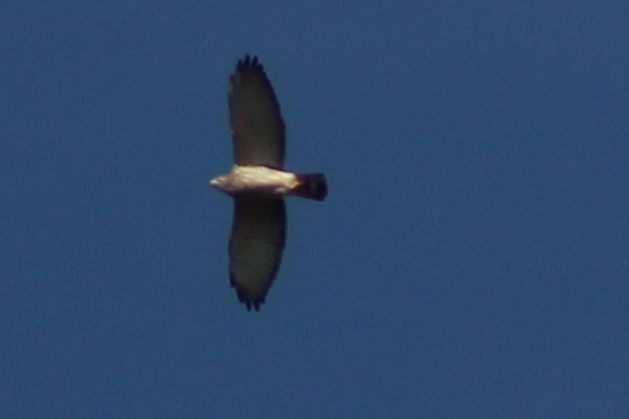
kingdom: Animalia
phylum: Chordata
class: Aves
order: Accipitriformes
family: Accipitridae
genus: Buteo
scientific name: Buteo platypterus
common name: Broad-winged hawk
